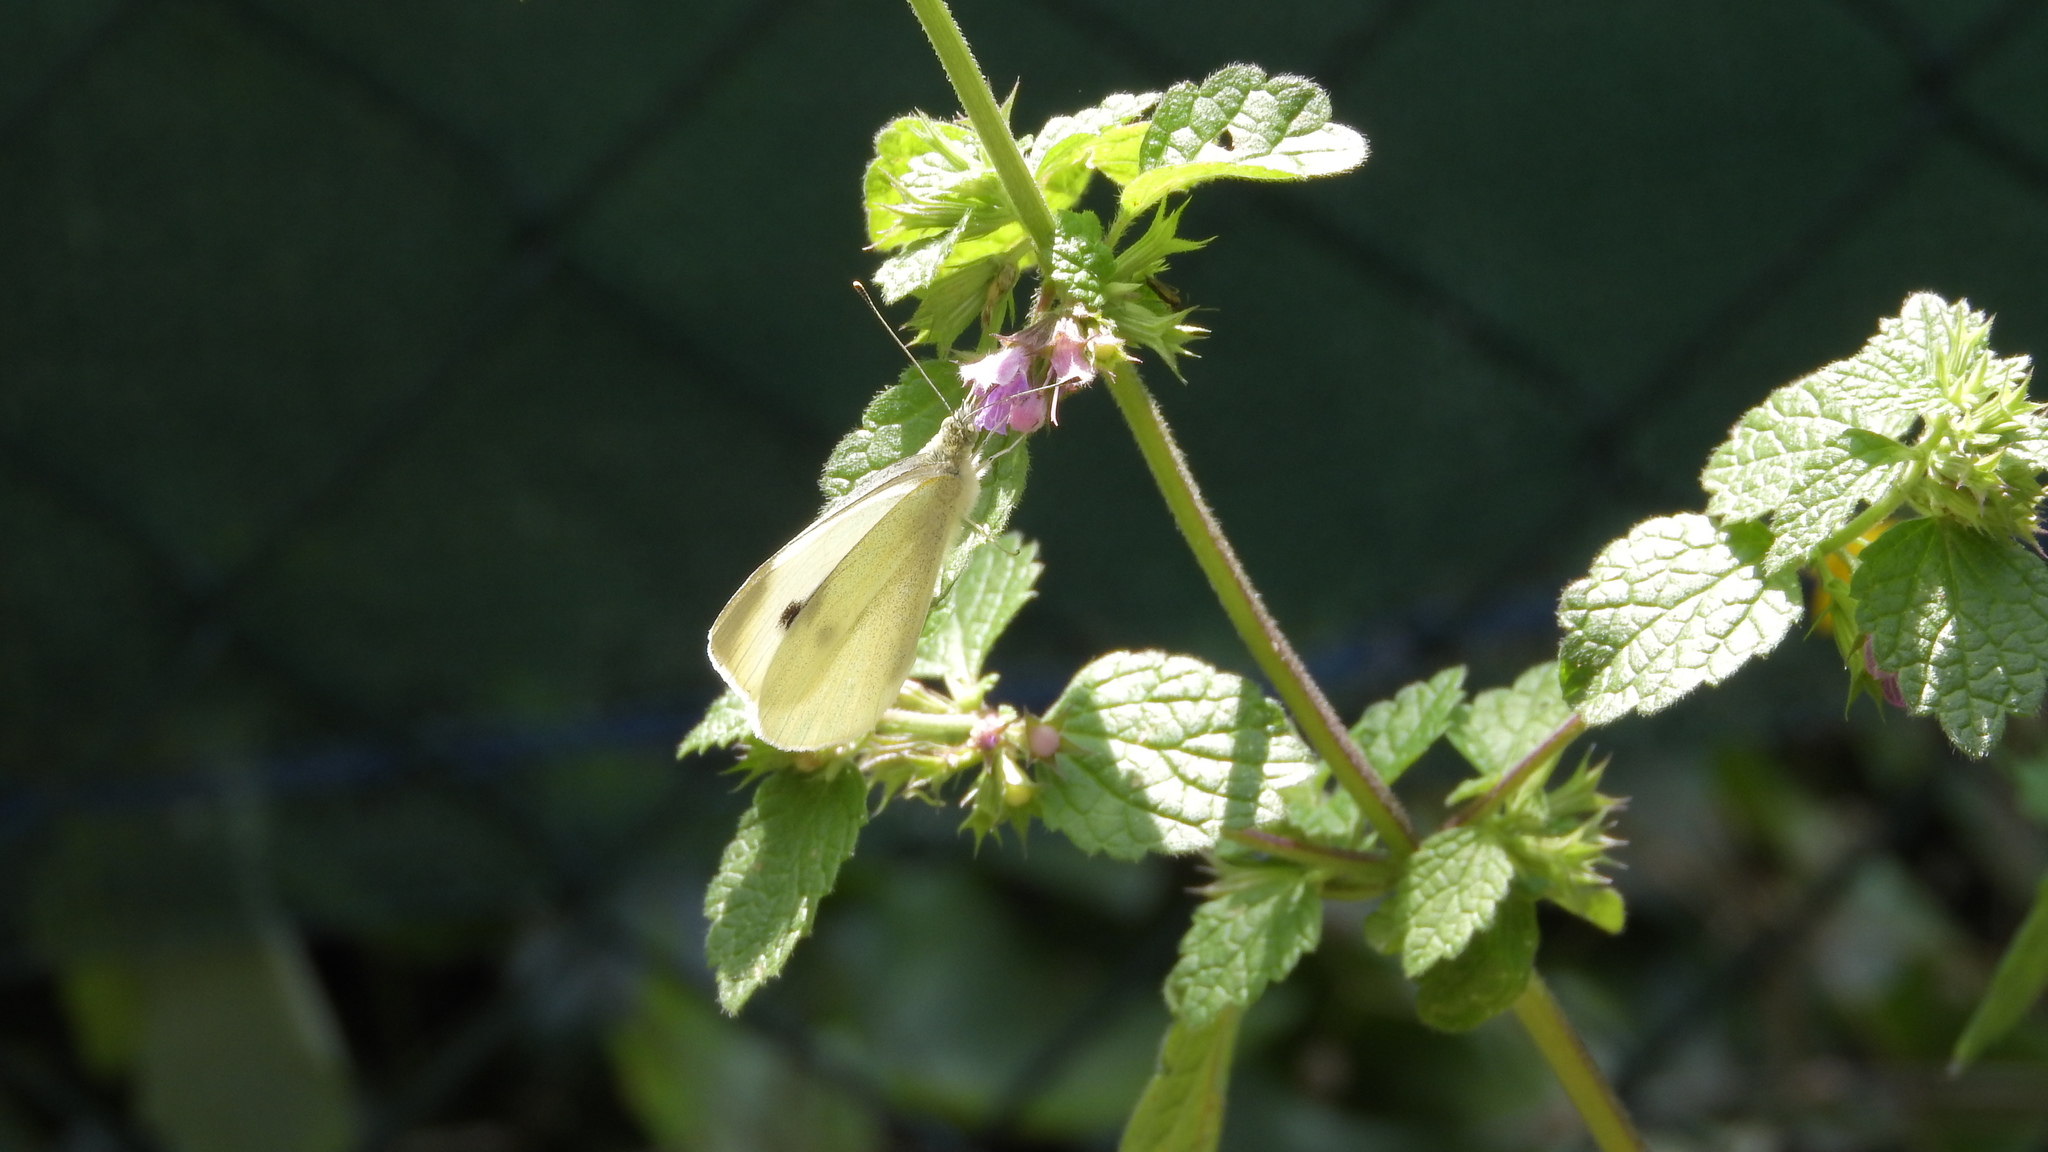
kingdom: Animalia
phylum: Arthropoda
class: Insecta
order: Lepidoptera
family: Pieridae
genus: Pieris
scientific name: Pieris rapae
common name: Small white
